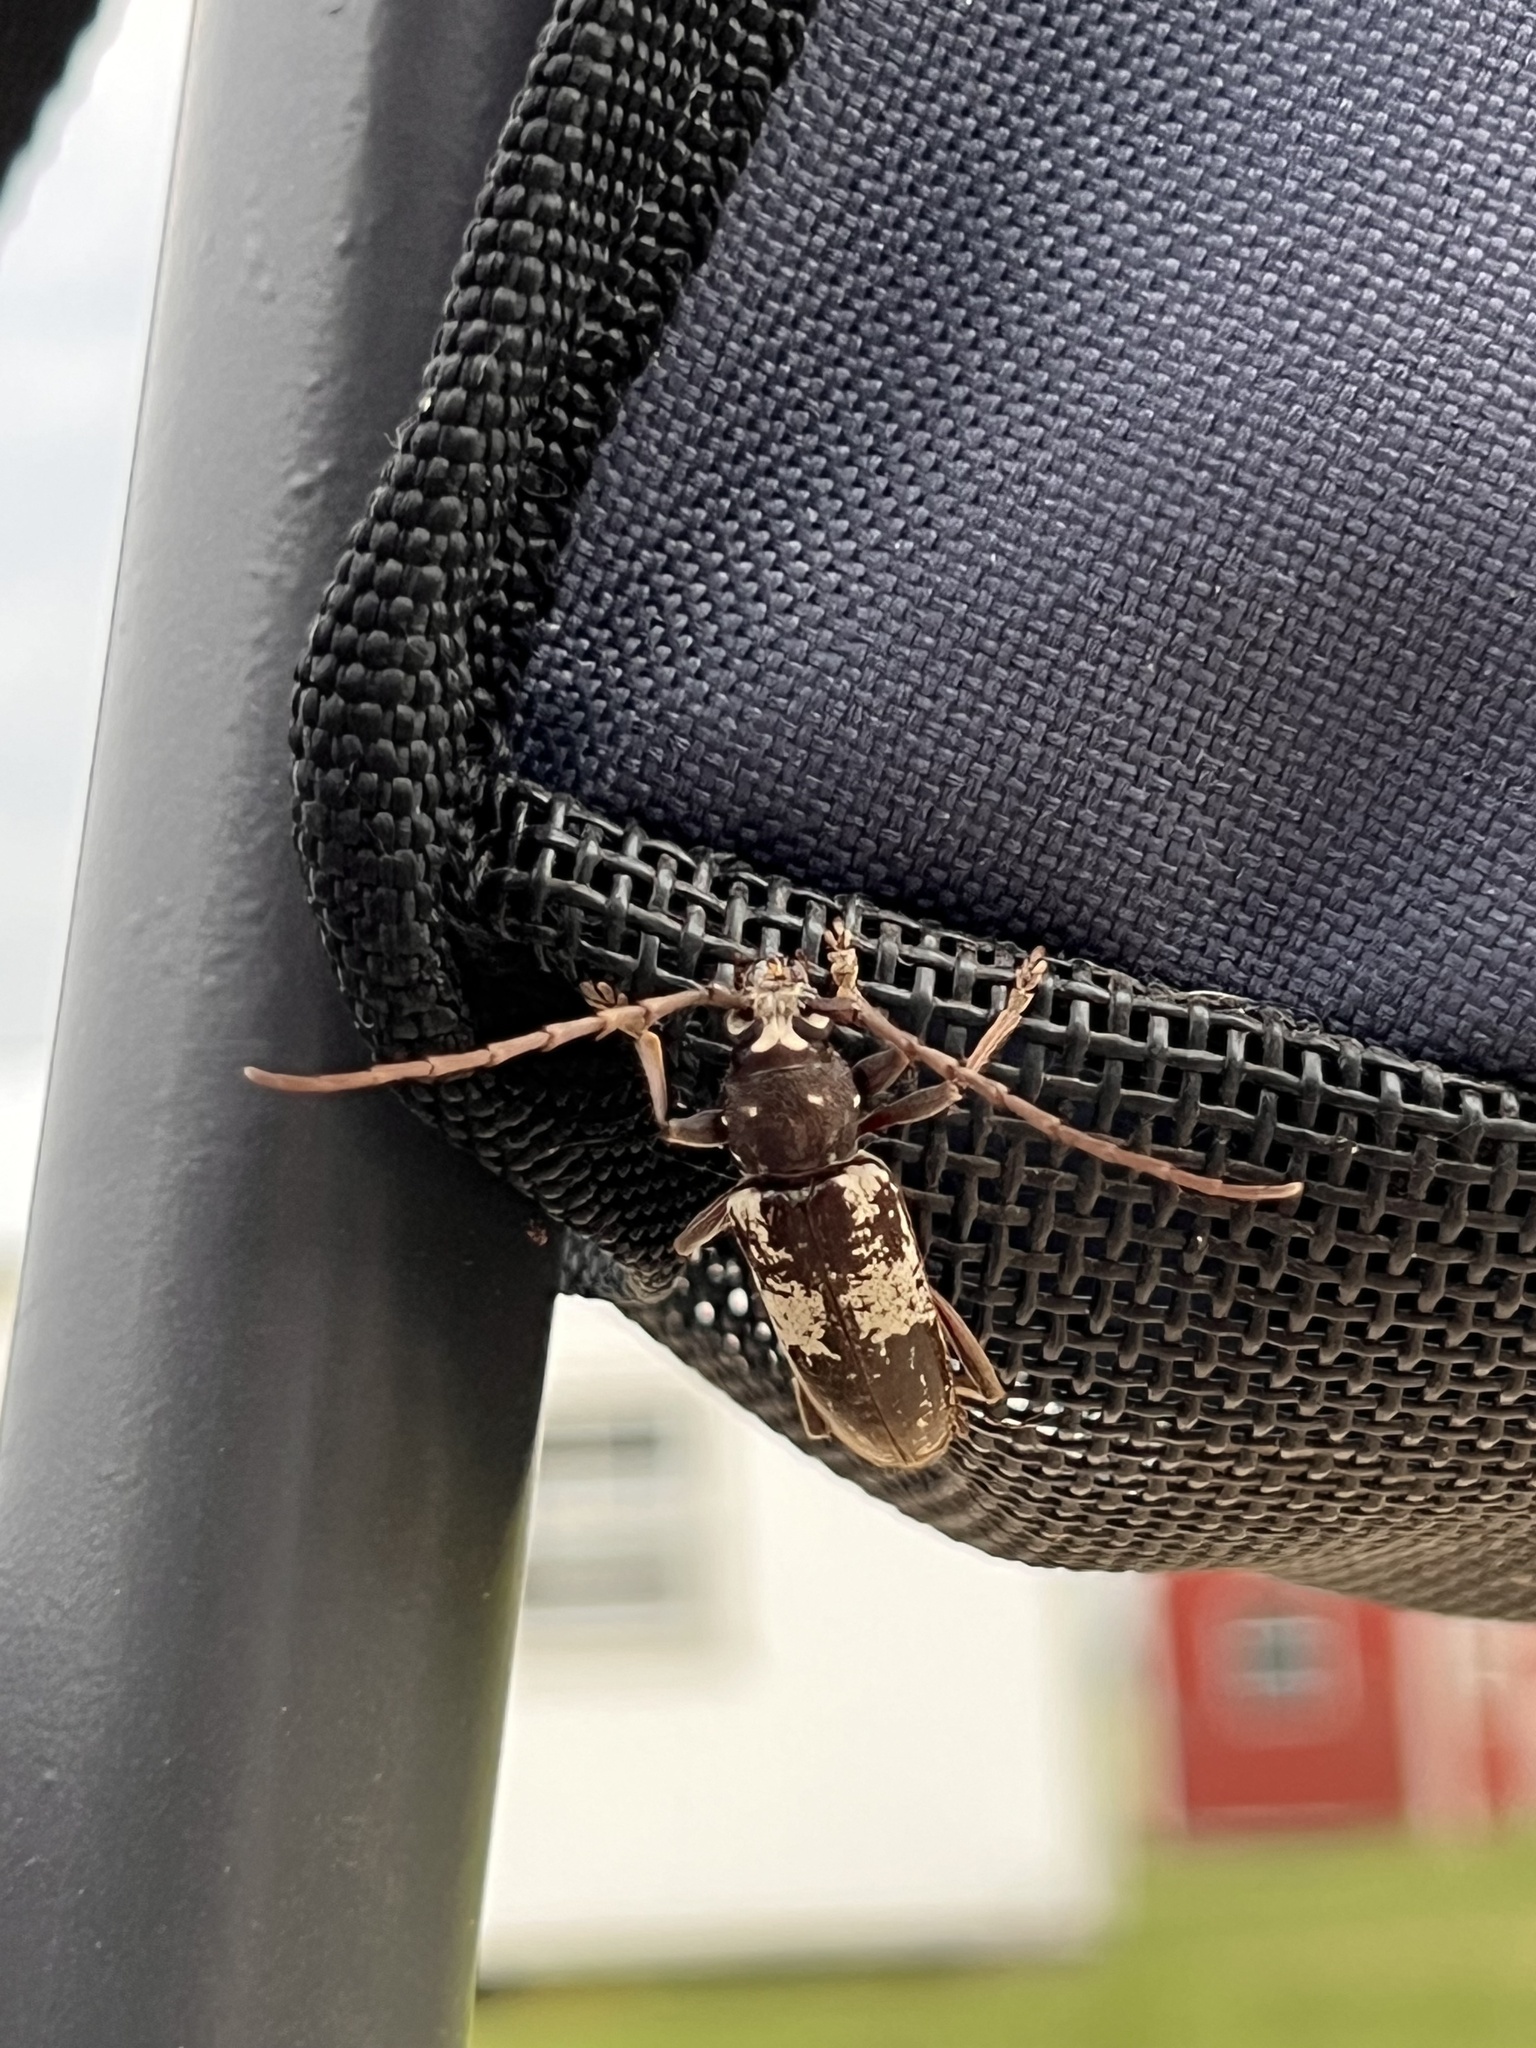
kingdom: Animalia
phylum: Arthropoda
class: Insecta
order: Coleoptera
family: Cerambycidae
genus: Enaphalodes
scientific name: Enaphalodes taeniatus
